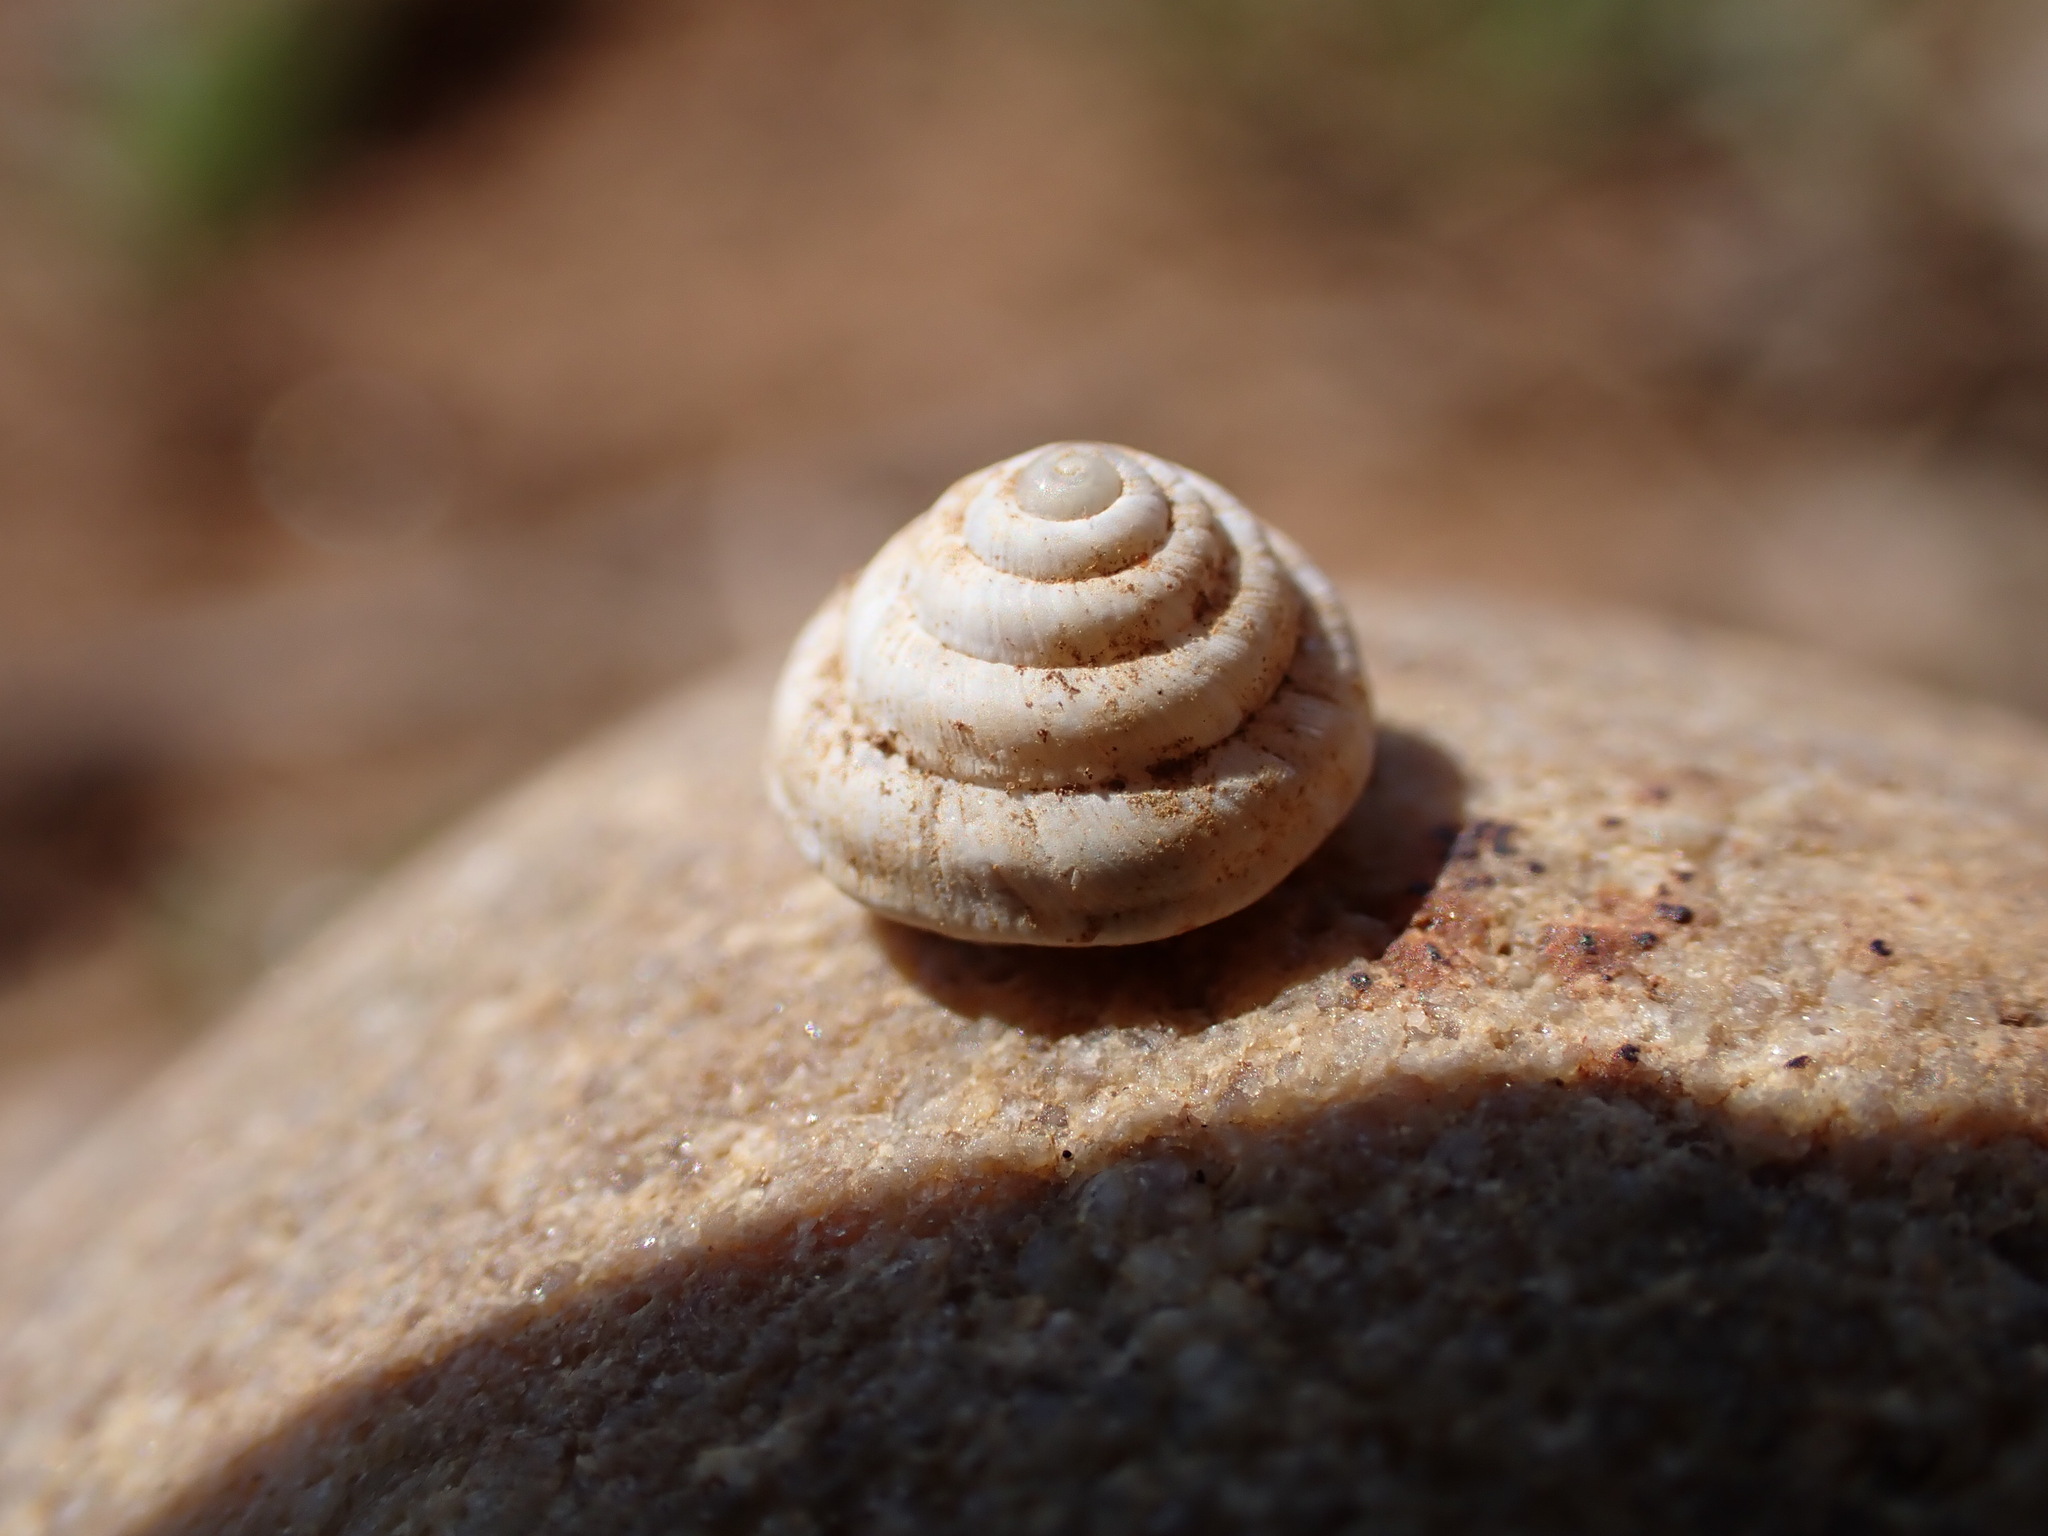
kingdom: Animalia
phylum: Mollusca
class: Gastropoda
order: Stylommatophora
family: Geomitridae
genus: Trochoidea
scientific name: Trochoidea trochoides
